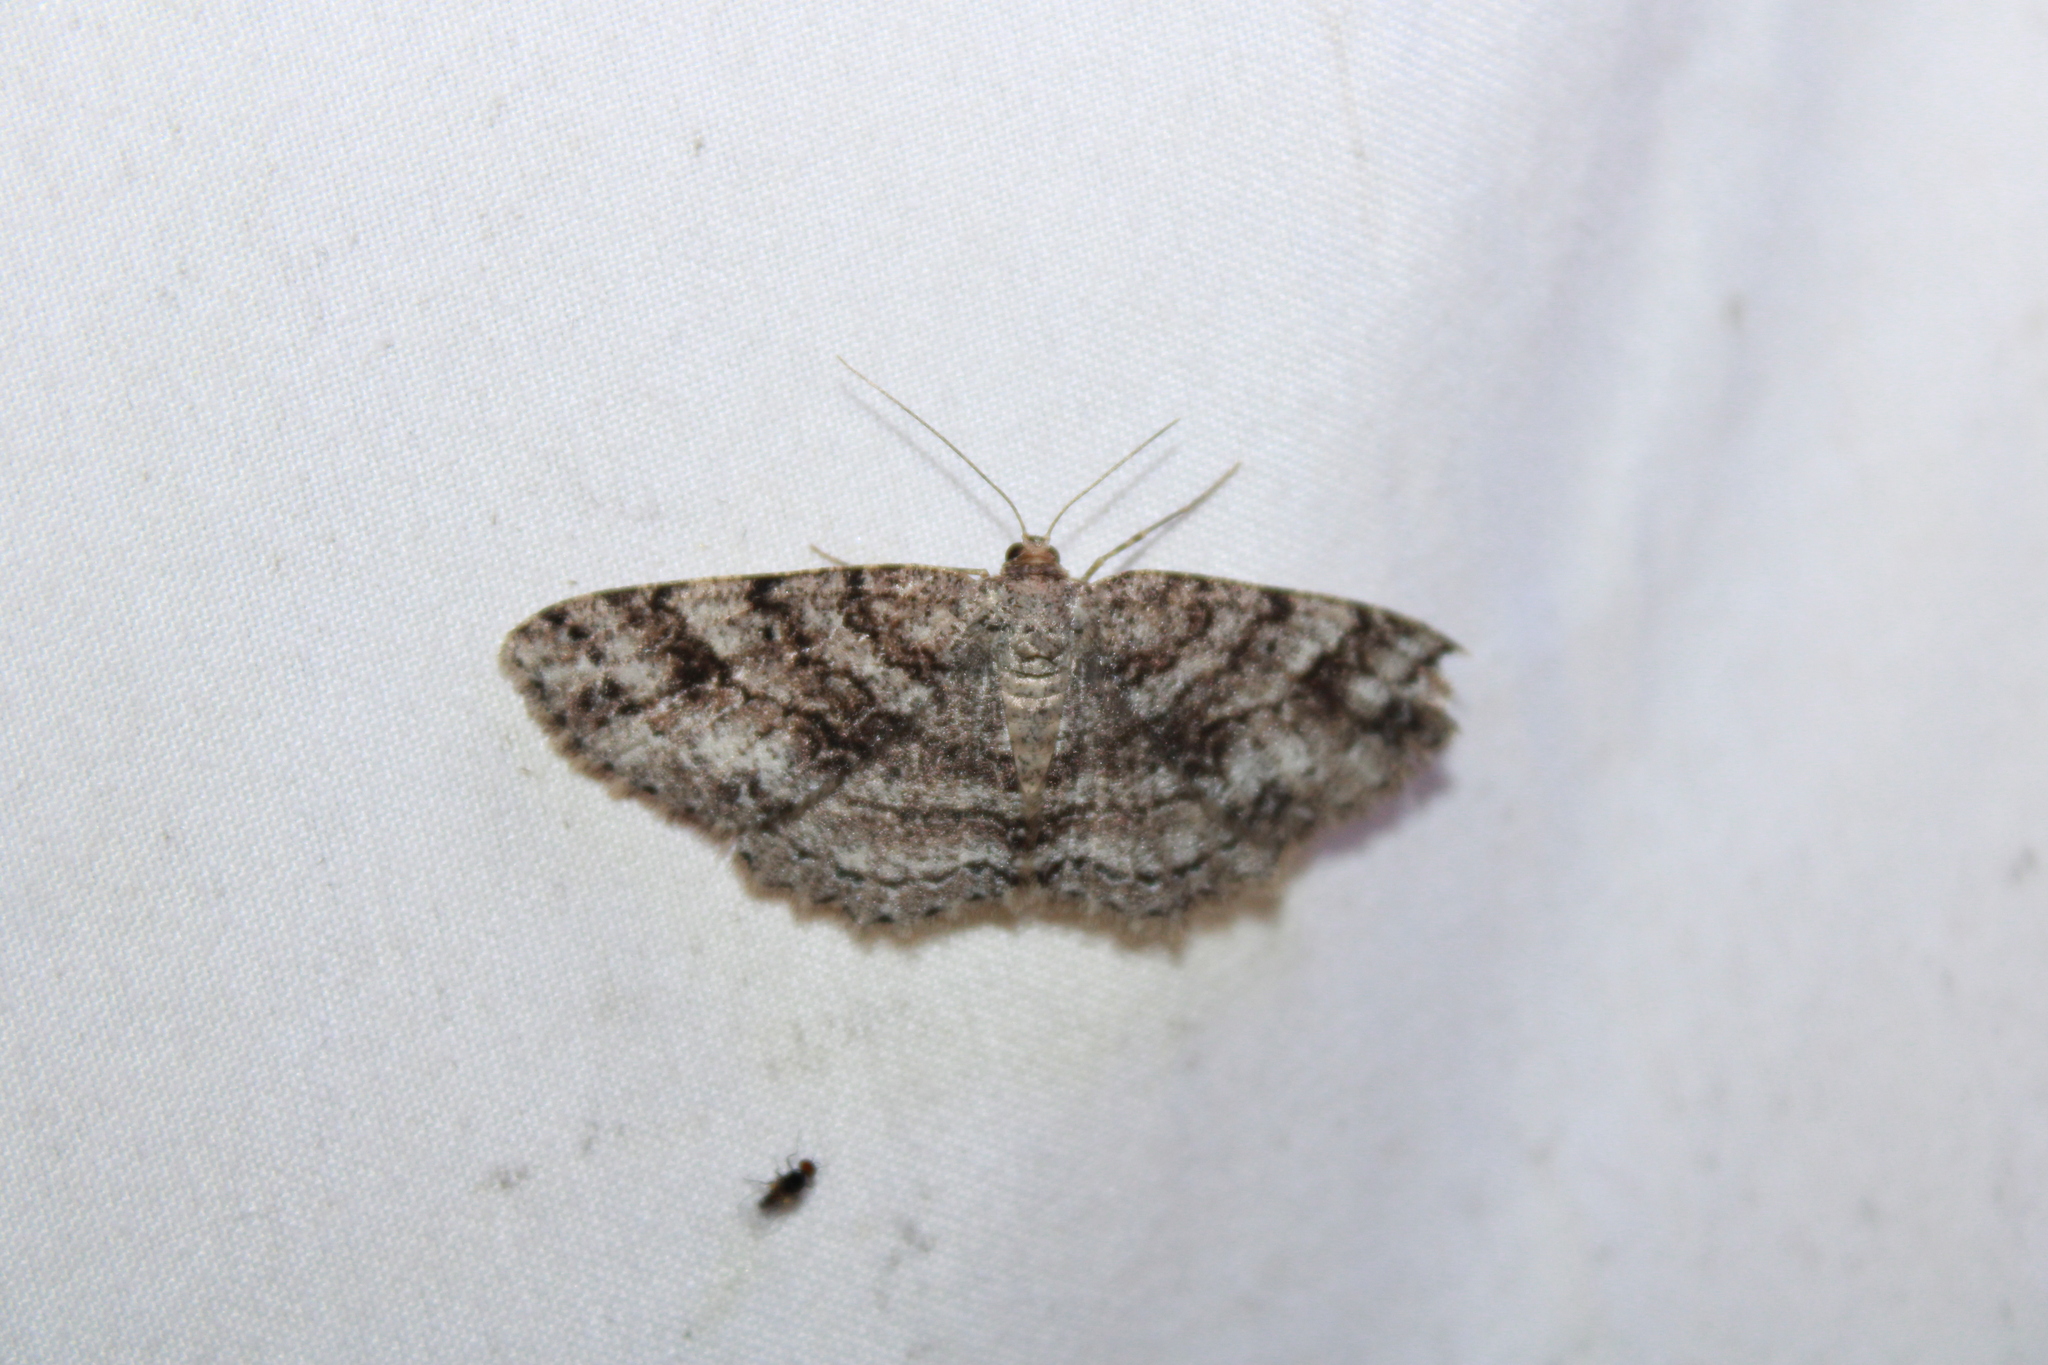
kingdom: Animalia
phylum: Arthropoda
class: Insecta
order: Lepidoptera
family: Geometridae
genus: Melanolophia
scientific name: Melanolophia canadaria
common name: Canadian melanolophia
